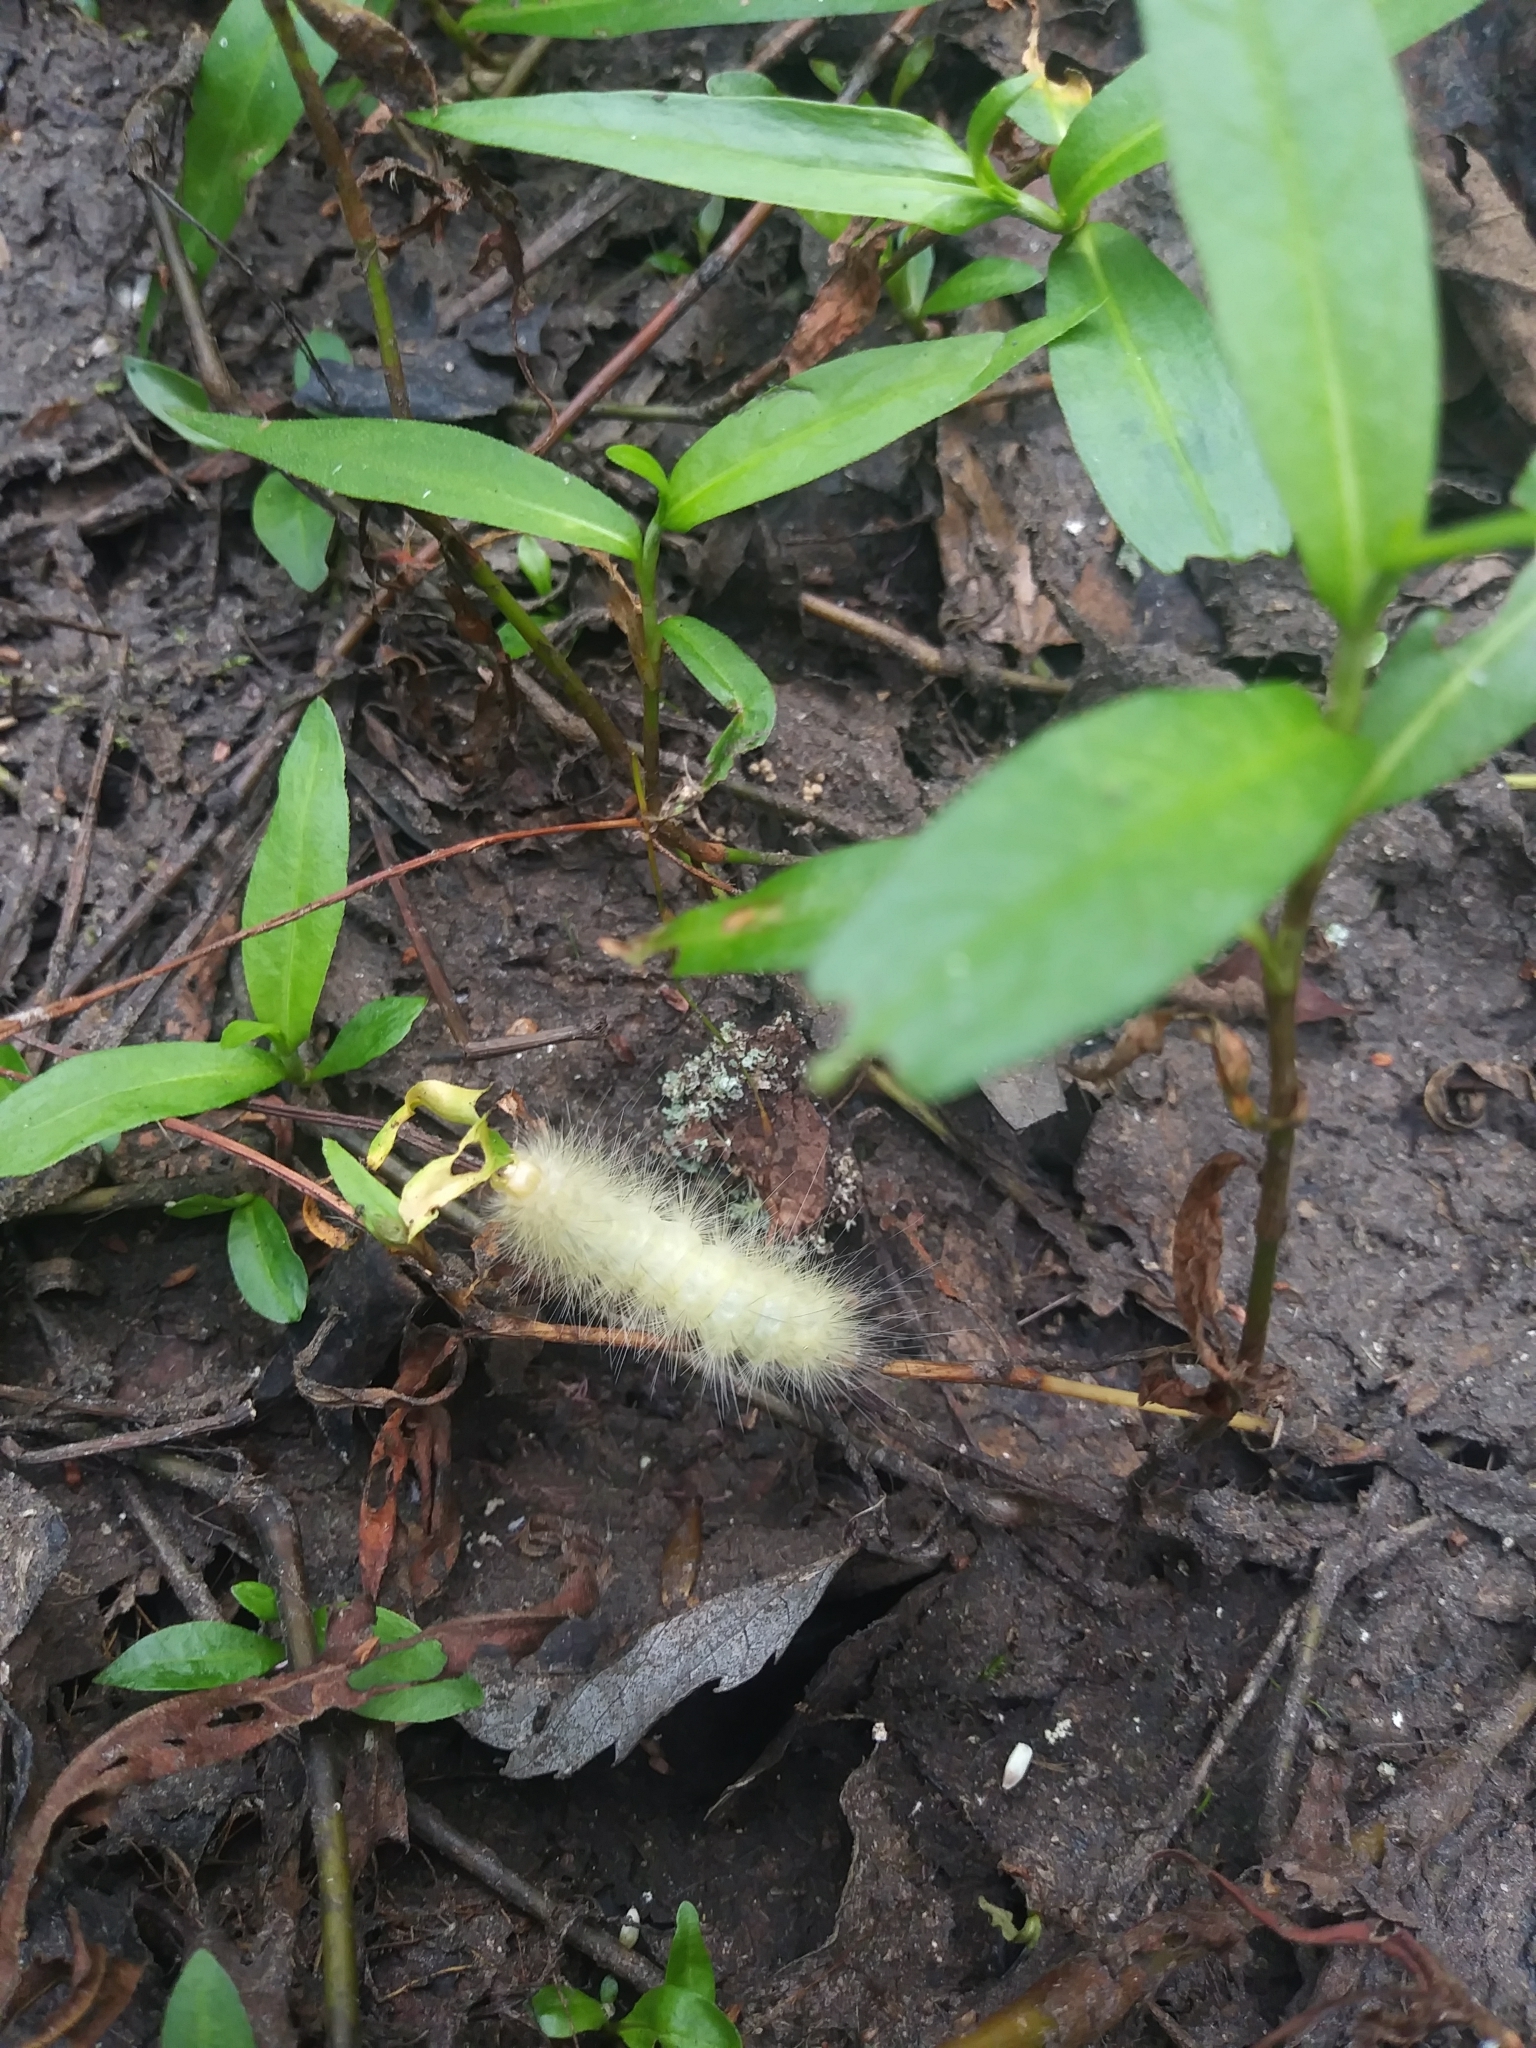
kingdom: Animalia
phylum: Arthropoda
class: Insecta
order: Lepidoptera
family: Erebidae
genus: Spilosoma
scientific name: Spilosoma virginica
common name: Virginia tiger moth
